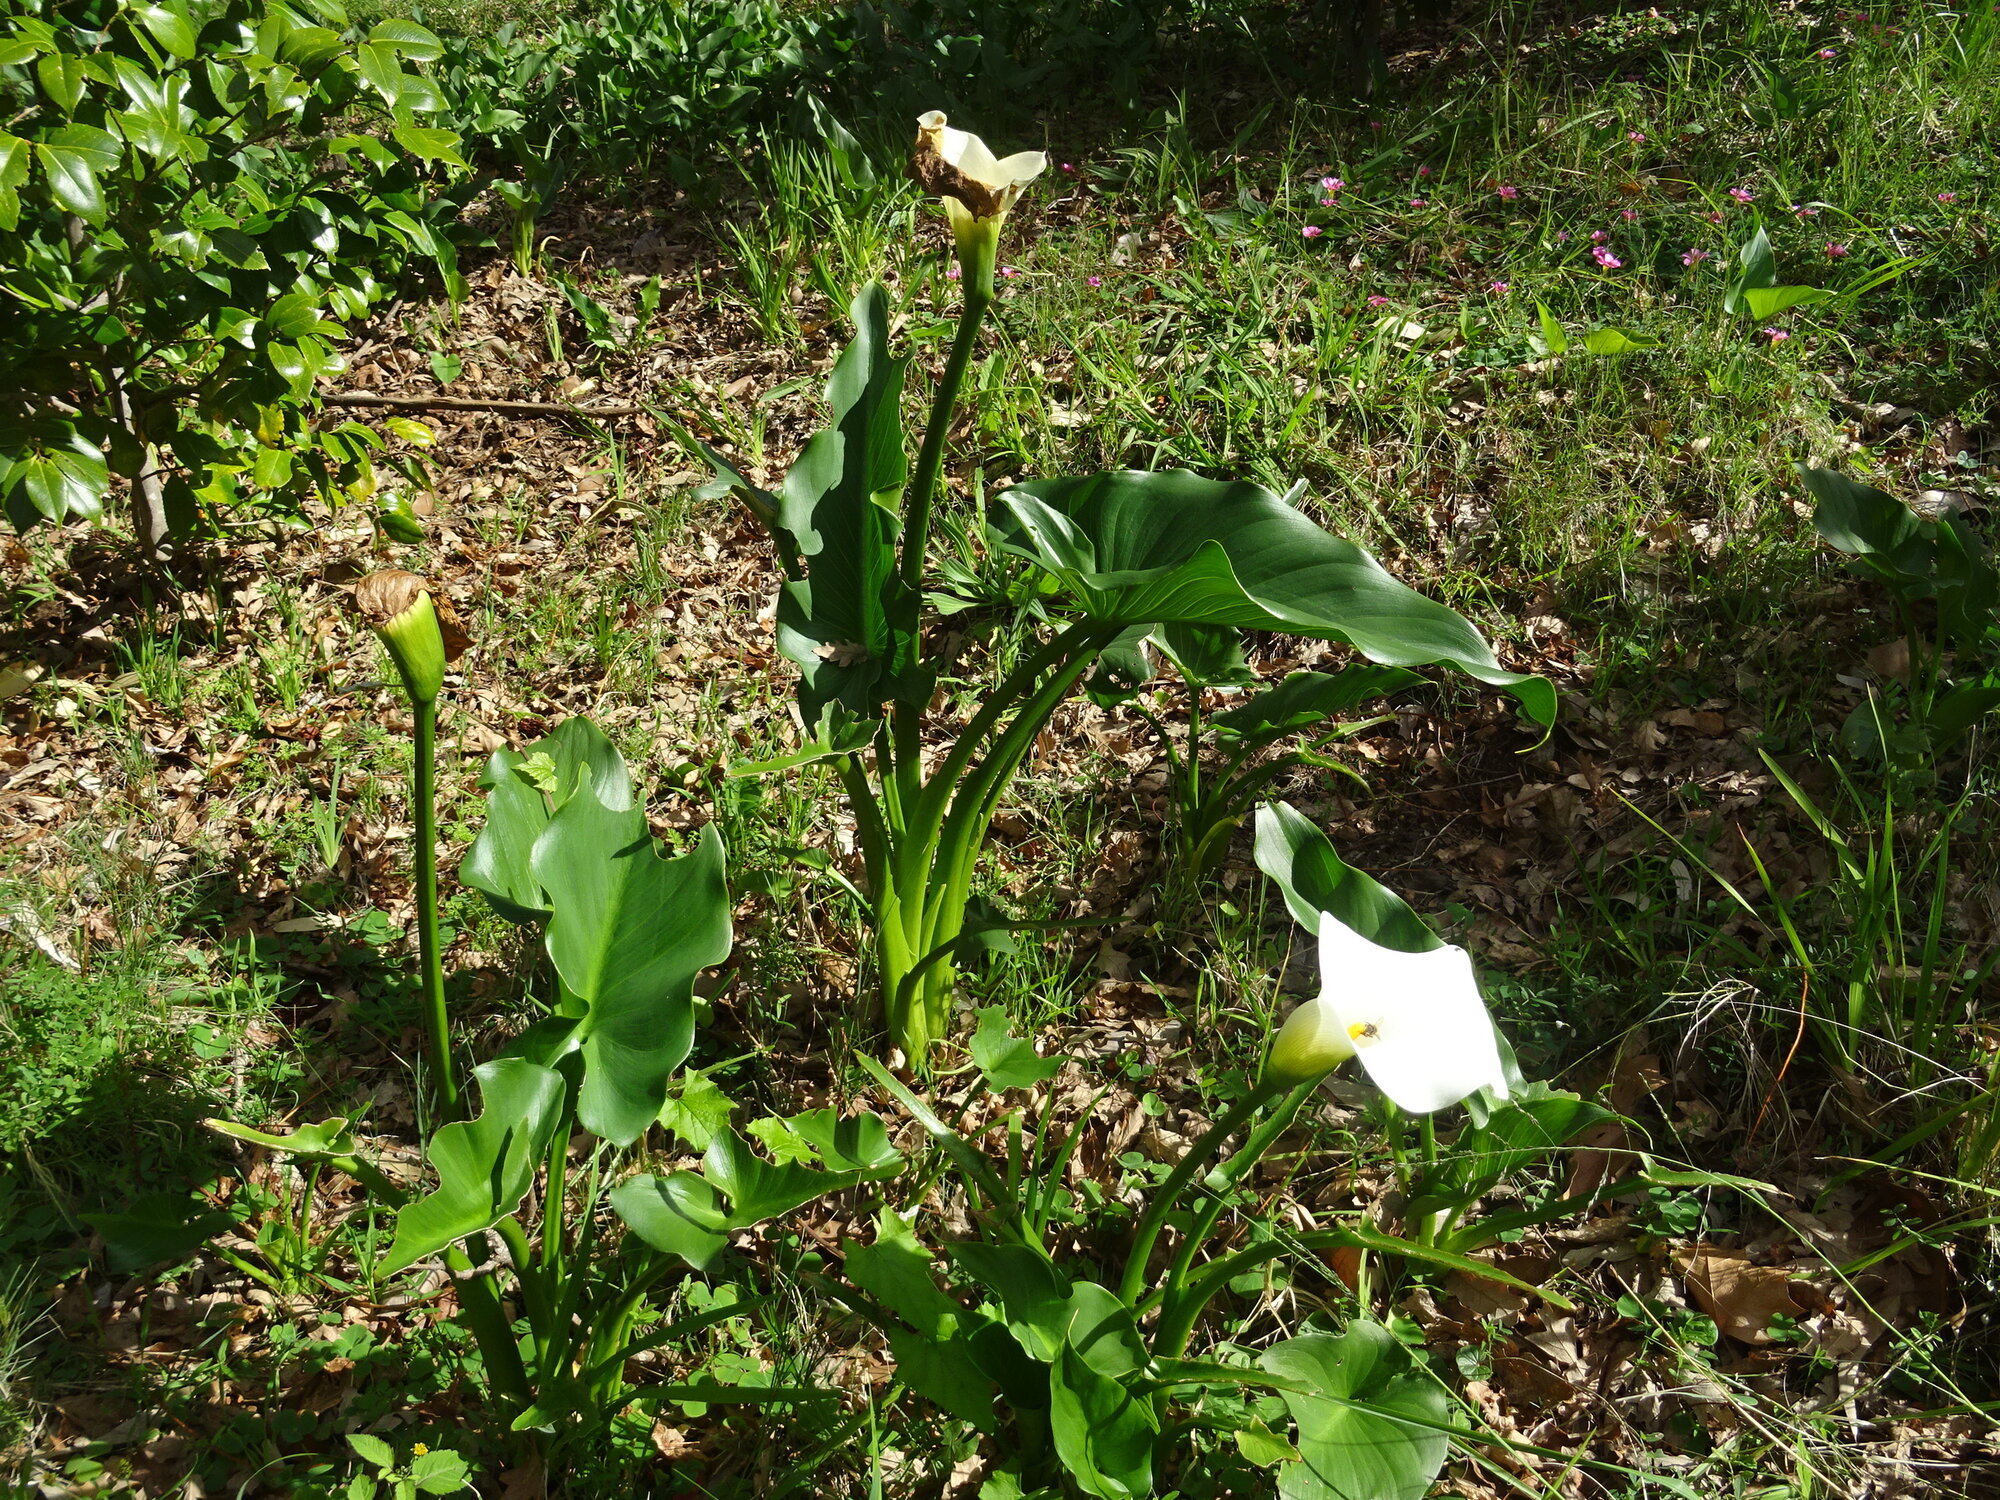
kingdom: Plantae
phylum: Tracheophyta
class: Liliopsida
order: Alismatales
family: Araceae
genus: Zantedeschia
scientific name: Zantedeschia aethiopica
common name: Altar-lily
